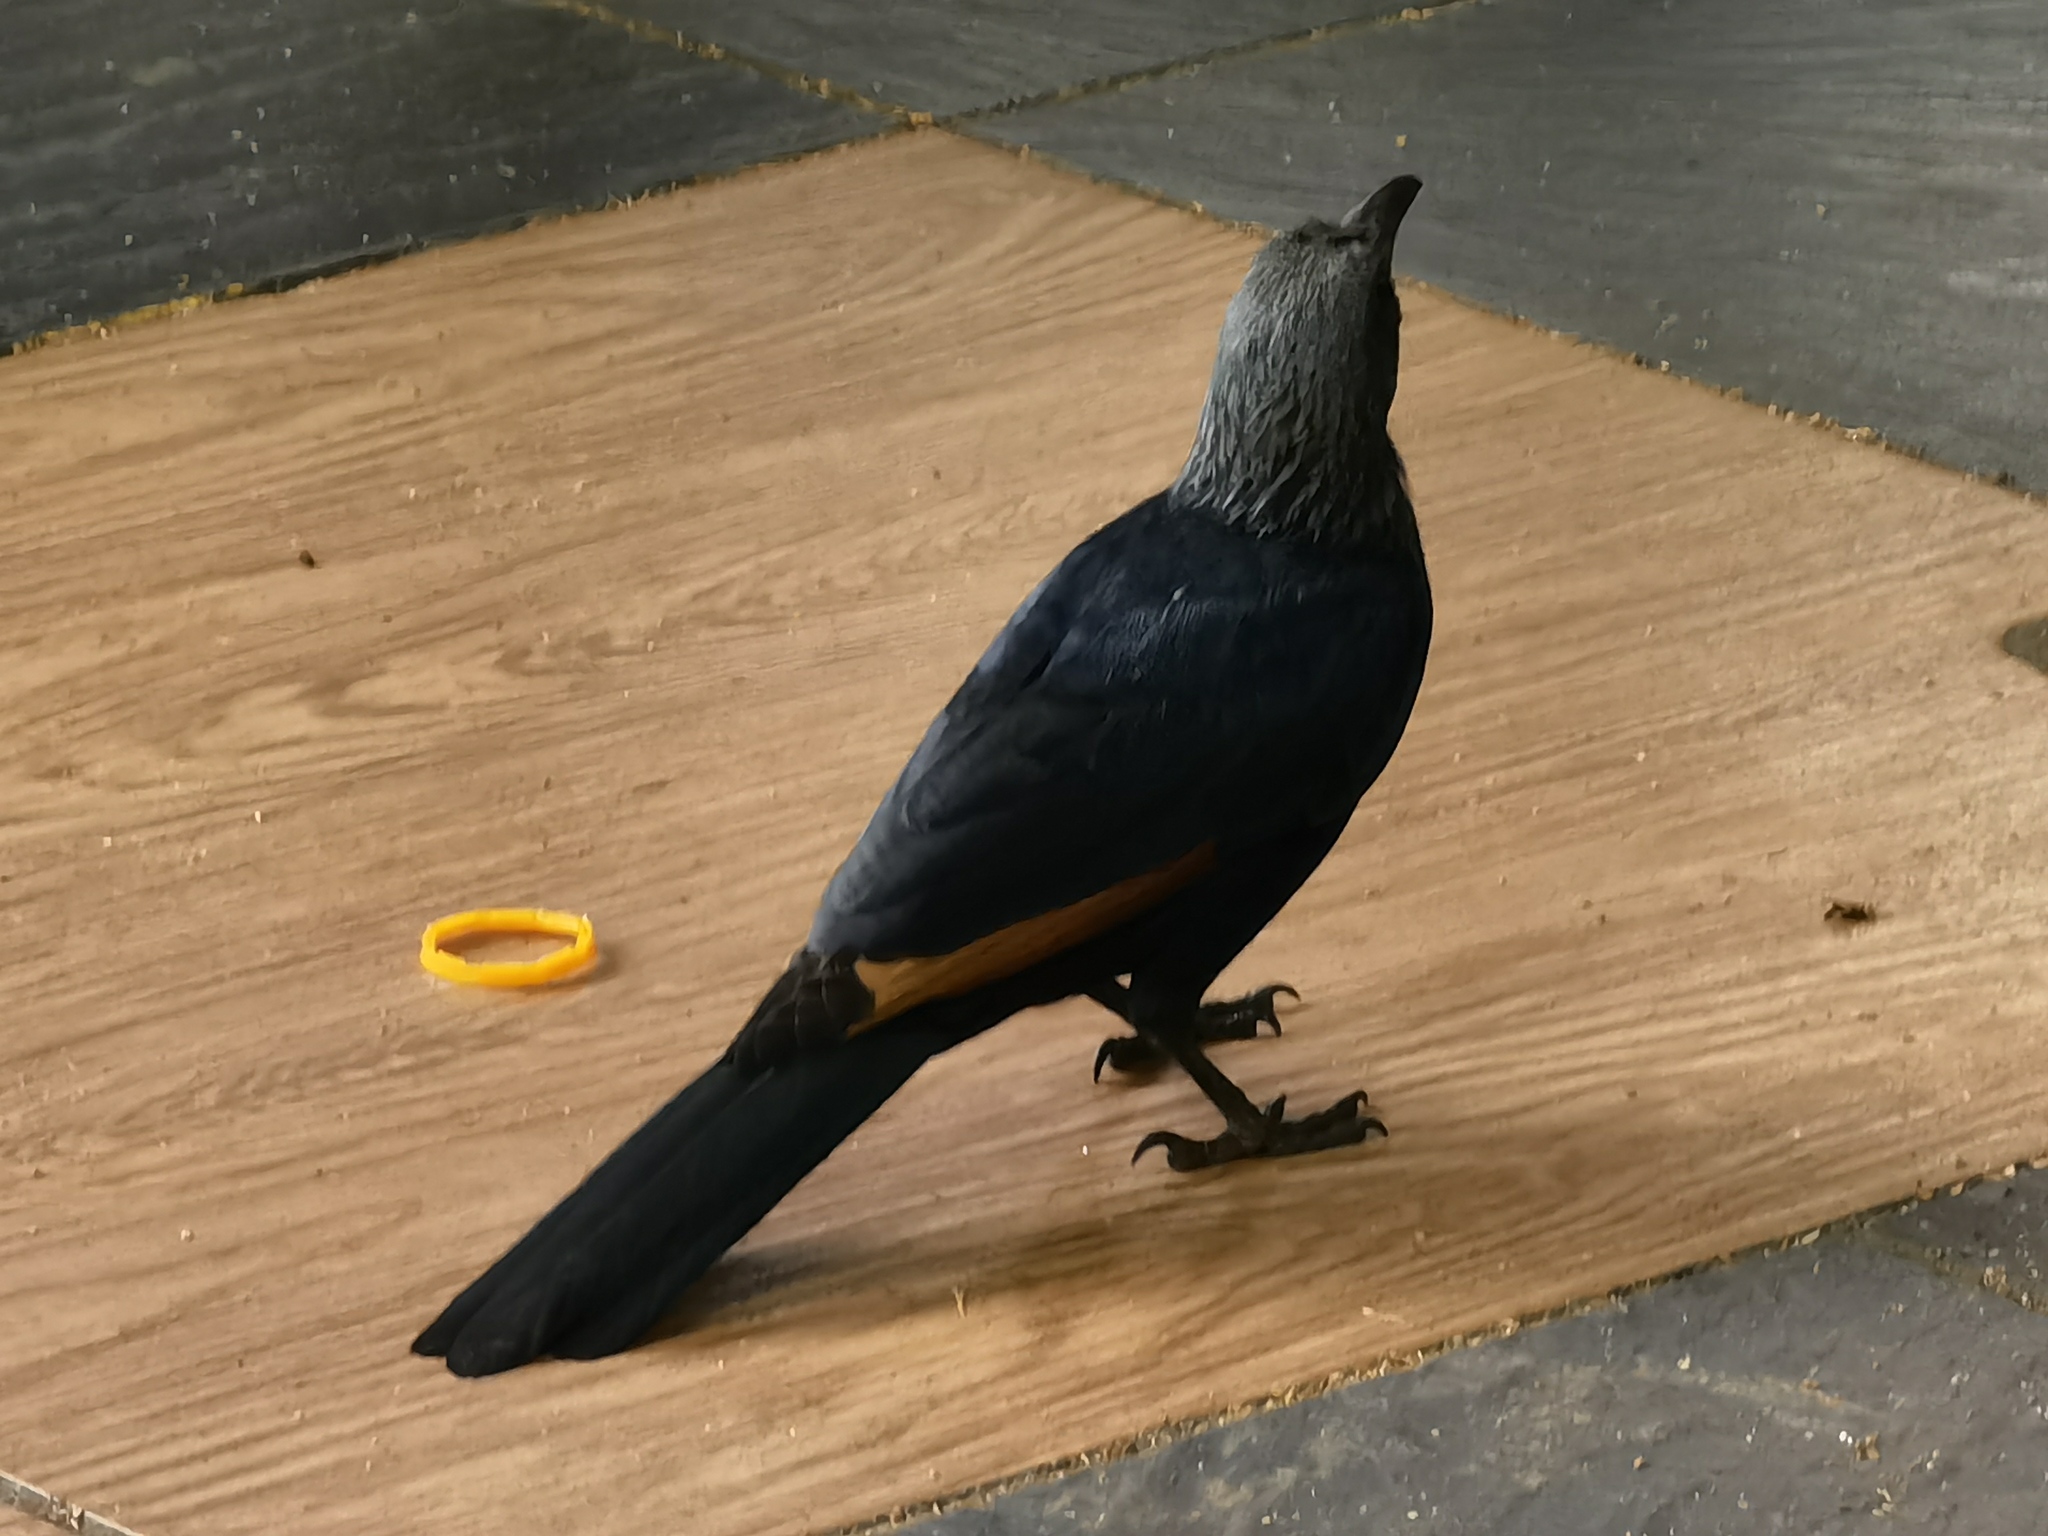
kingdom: Animalia
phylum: Chordata
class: Aves
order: Passeriformes
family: Sturnidae
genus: Onychognathus
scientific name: Onychognathus morio
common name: Red-winged starling
